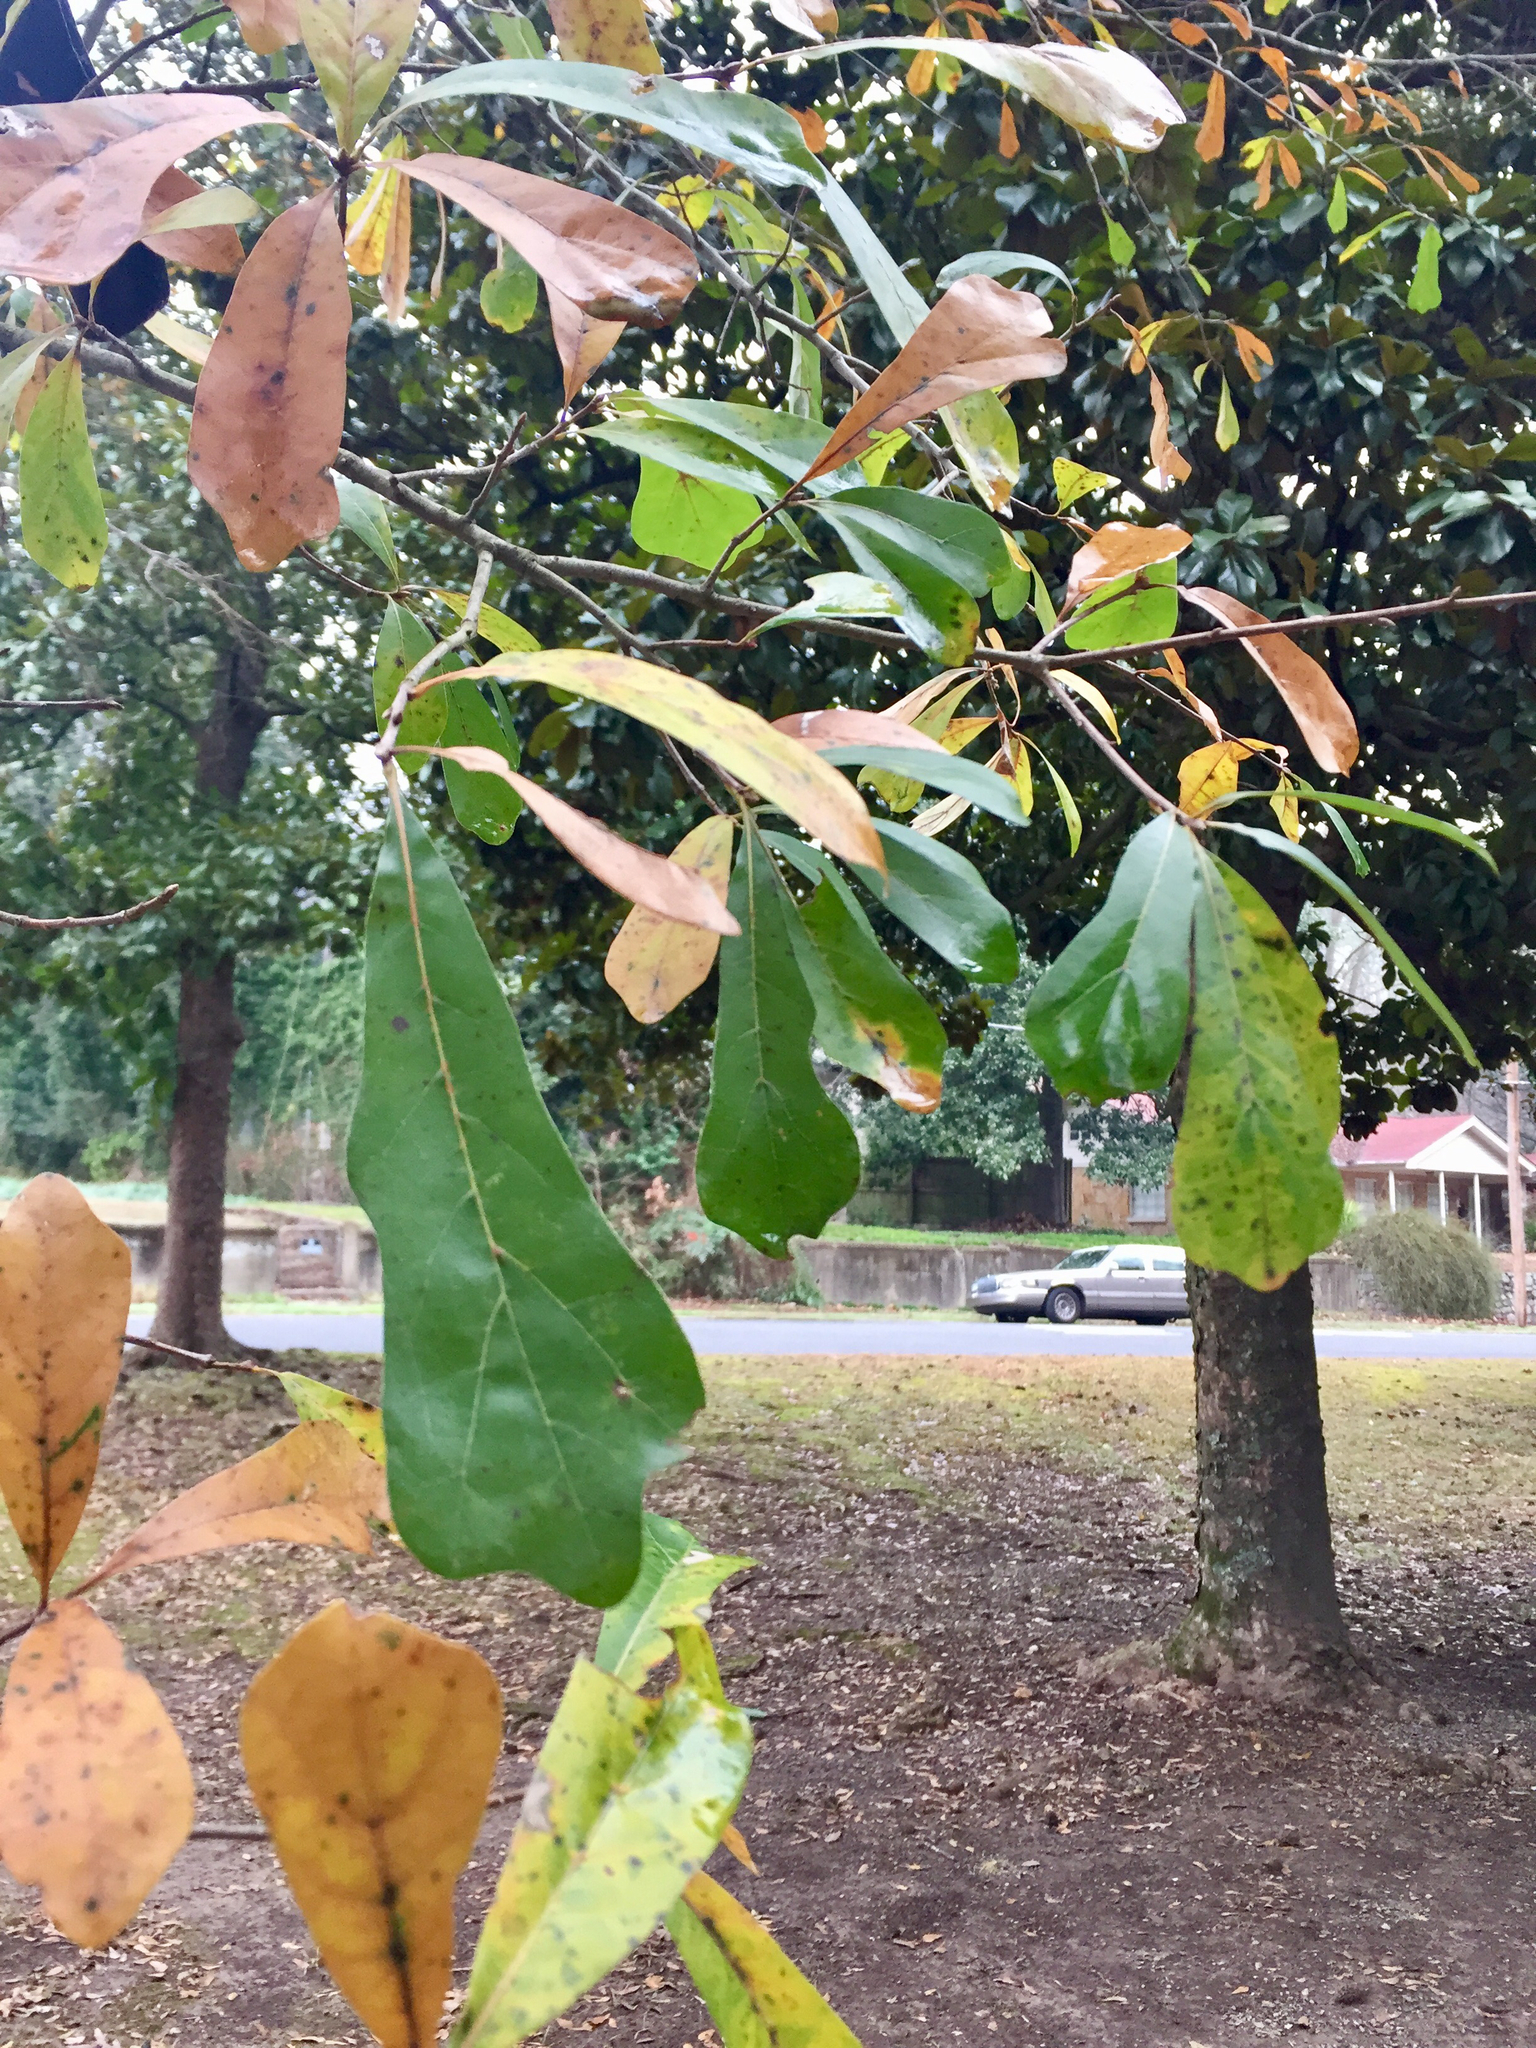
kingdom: Plantae
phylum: Tracheophyta
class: Magnoliopsida
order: Fagales
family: Fagaceae
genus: Quercus
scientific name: Quercus nigra
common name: Water oak
